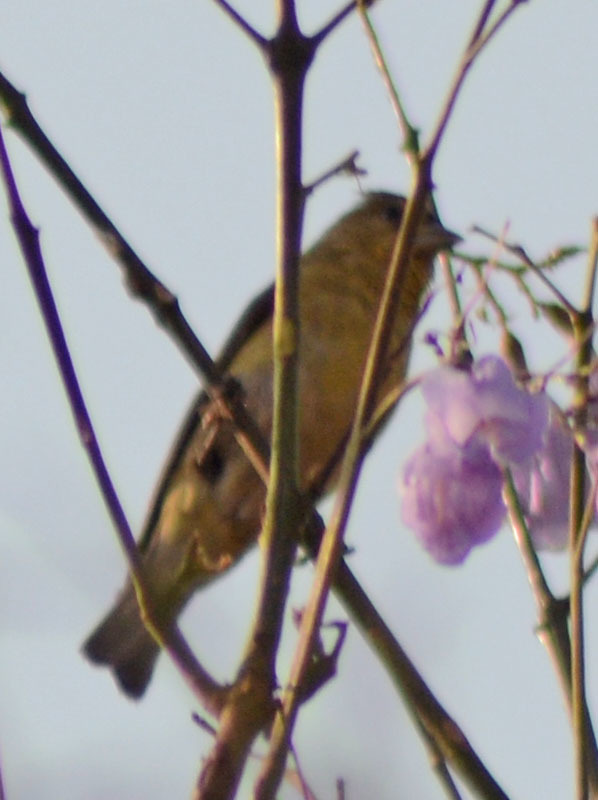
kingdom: Animalia
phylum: Chordata
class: Aves
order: Passeriformes
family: Fringillidae
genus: Spinus
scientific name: Spinus psaltria
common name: Lesser goldfinch
